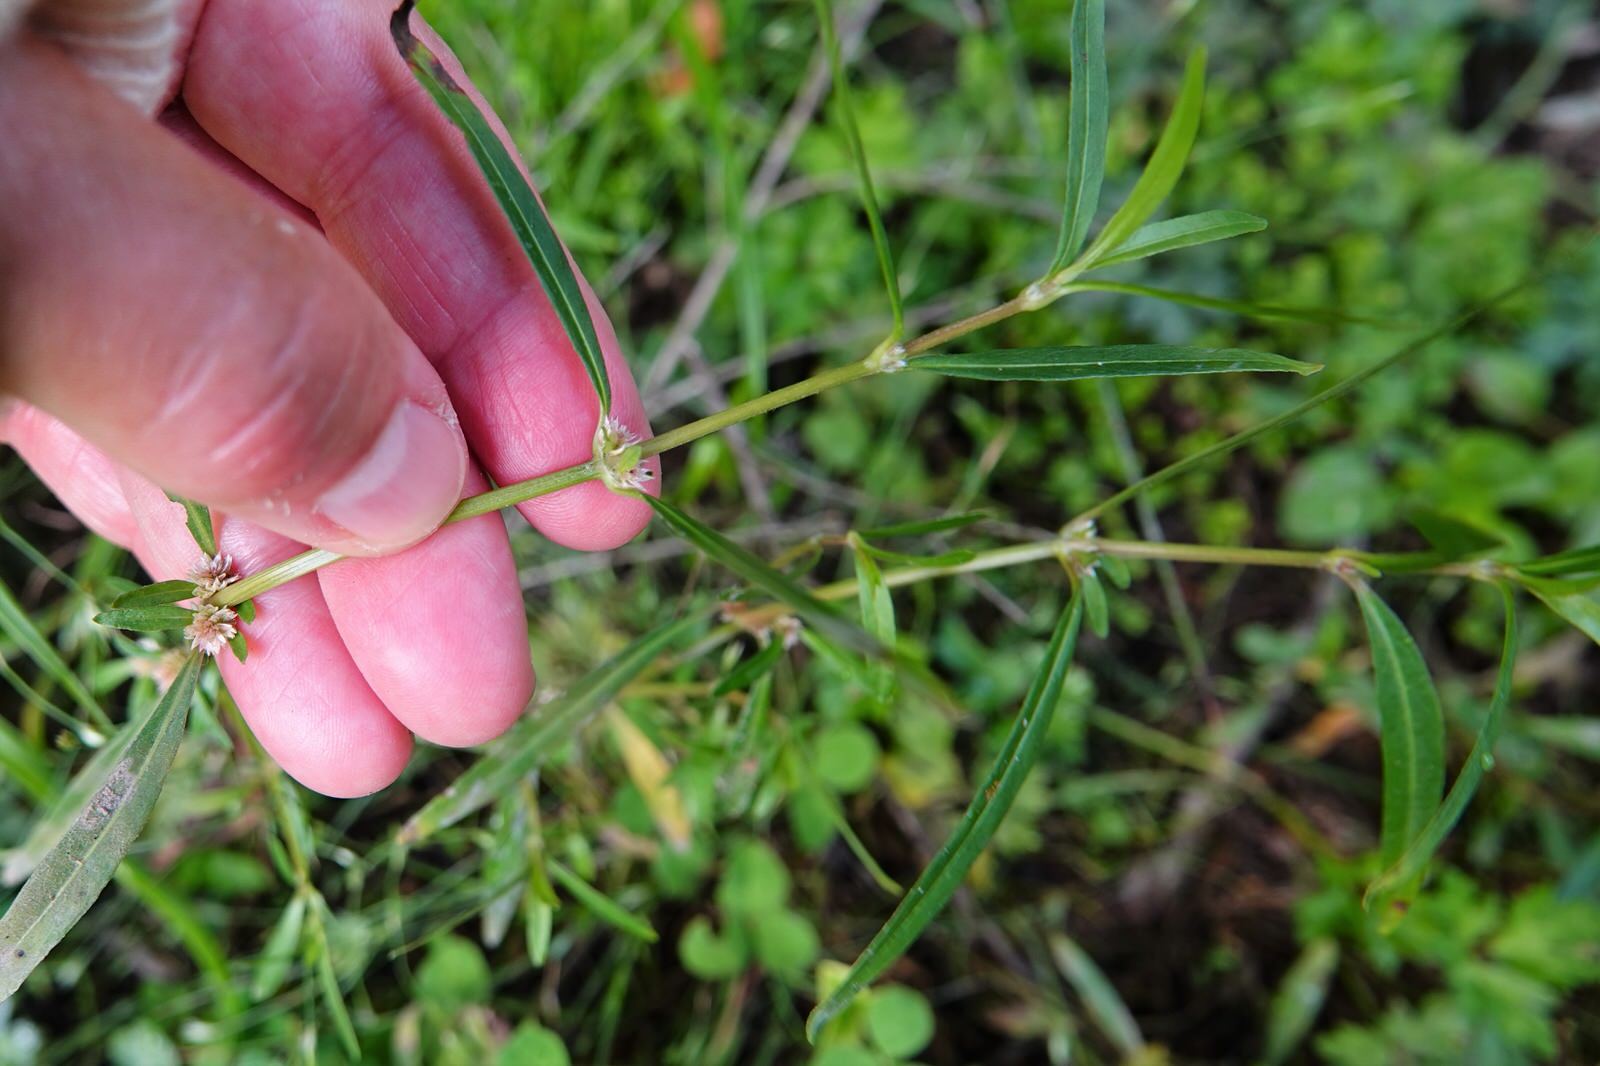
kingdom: Plantae
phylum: Tracheophyta
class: Magnoliopsida
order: Caryophyllales
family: Amaranthaceae
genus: Alternanthera
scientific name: Alternanthera nahui
